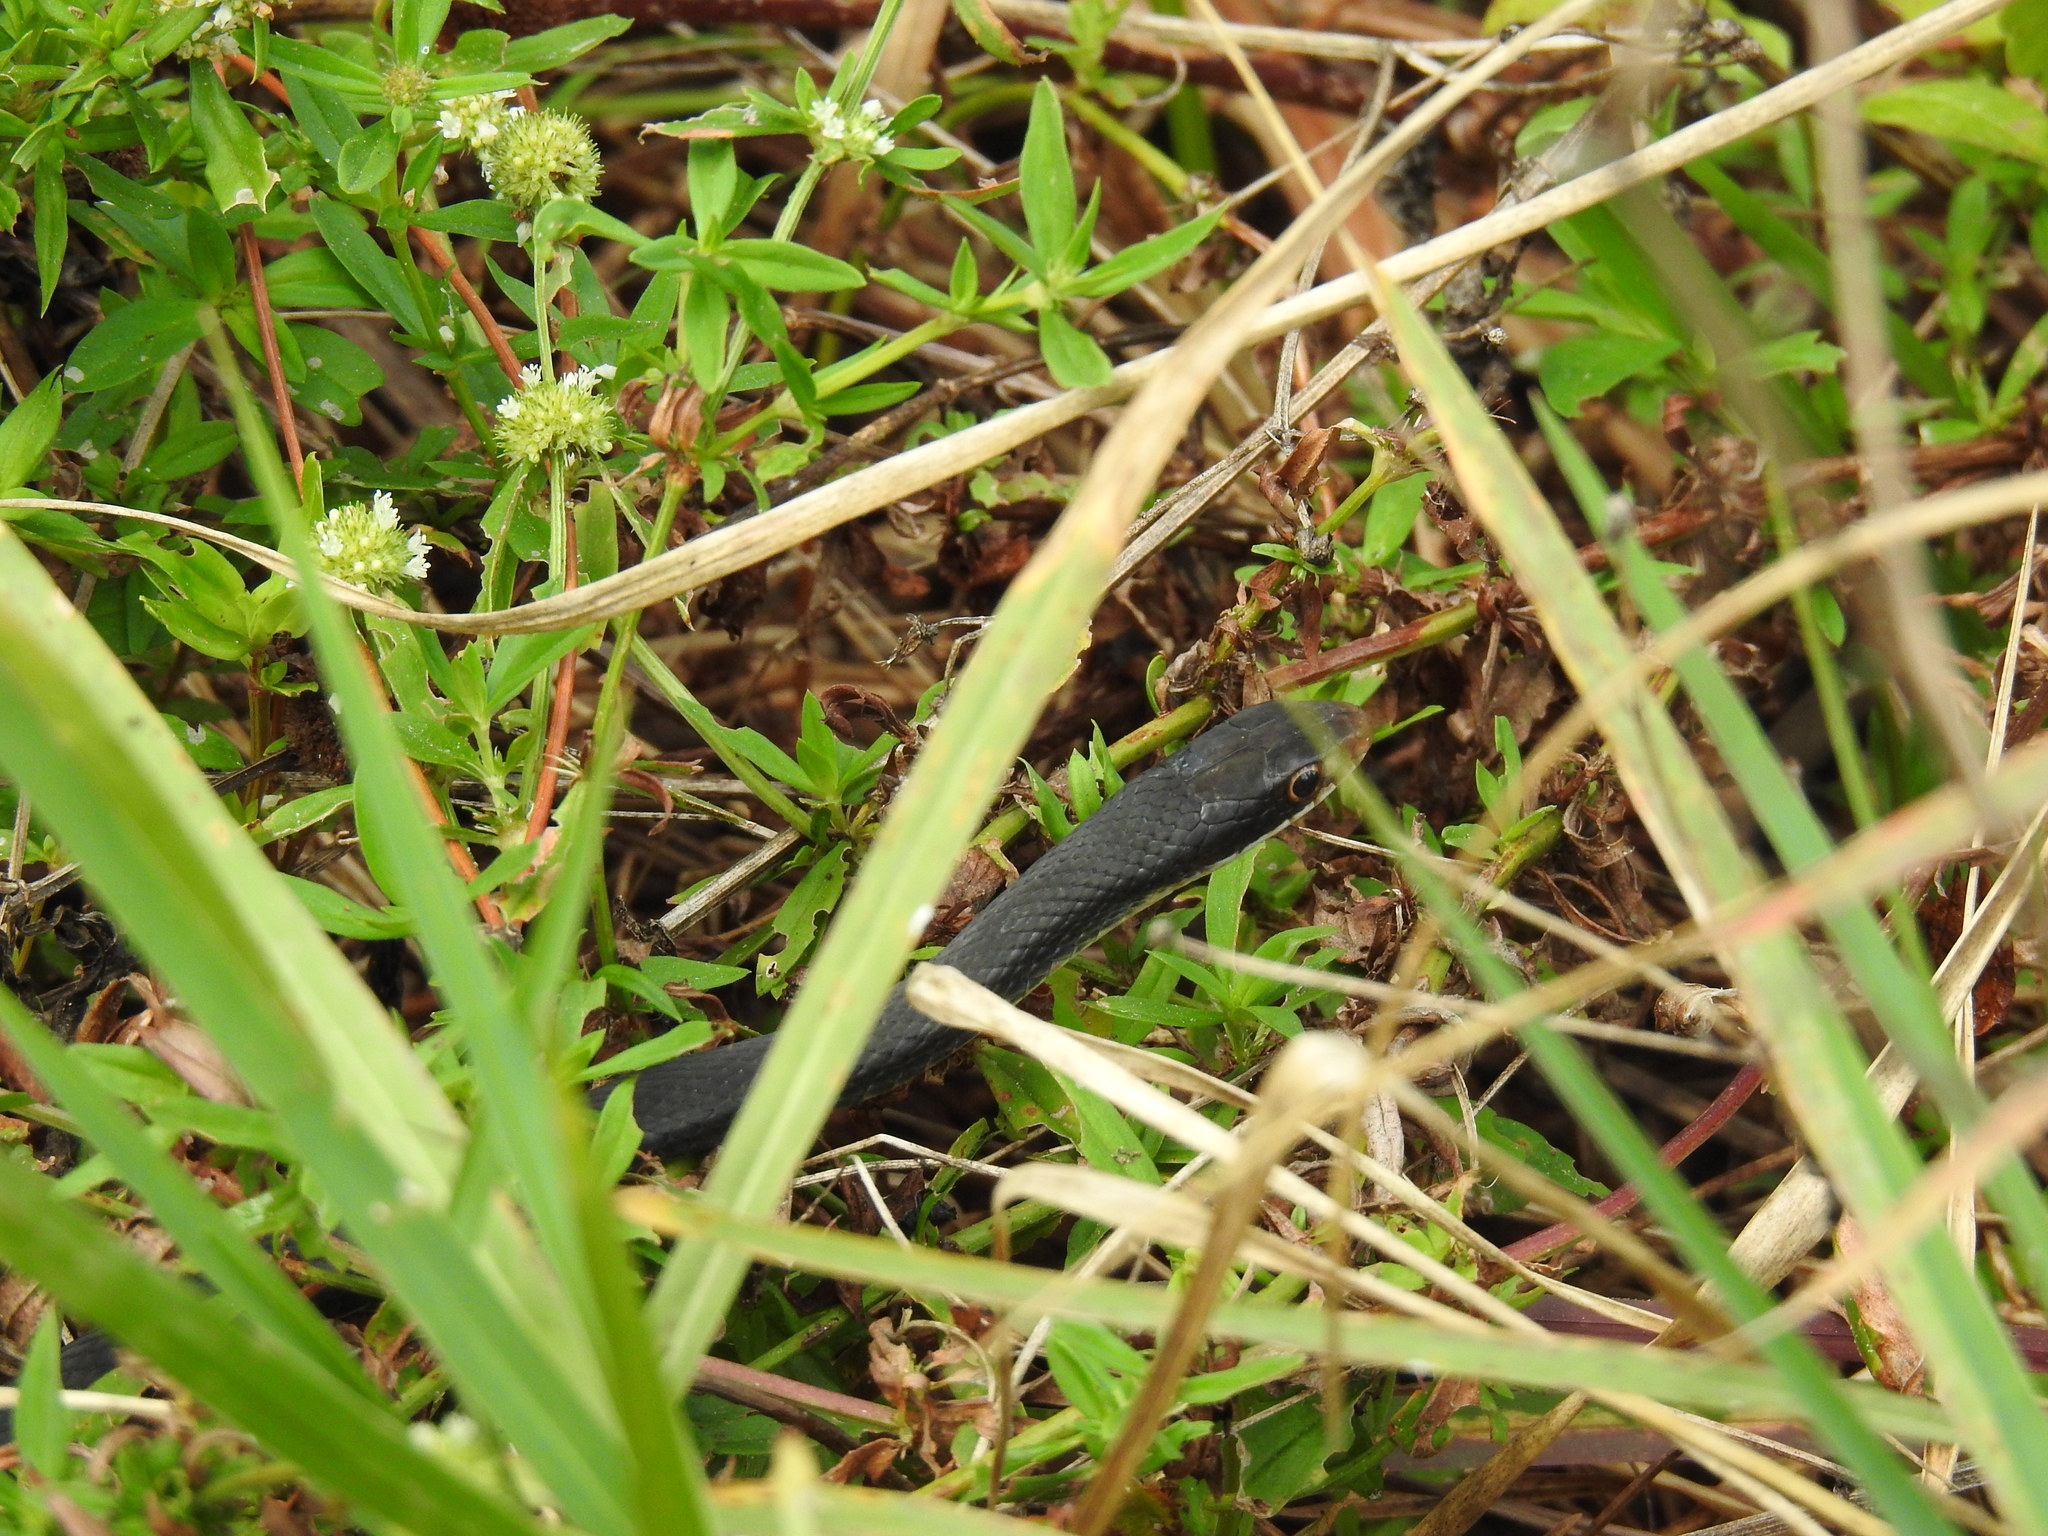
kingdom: Animalia
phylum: Chordata
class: Squamata
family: Colubridae
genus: Coluber
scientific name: Coluber constrictor
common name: Eastern racer
